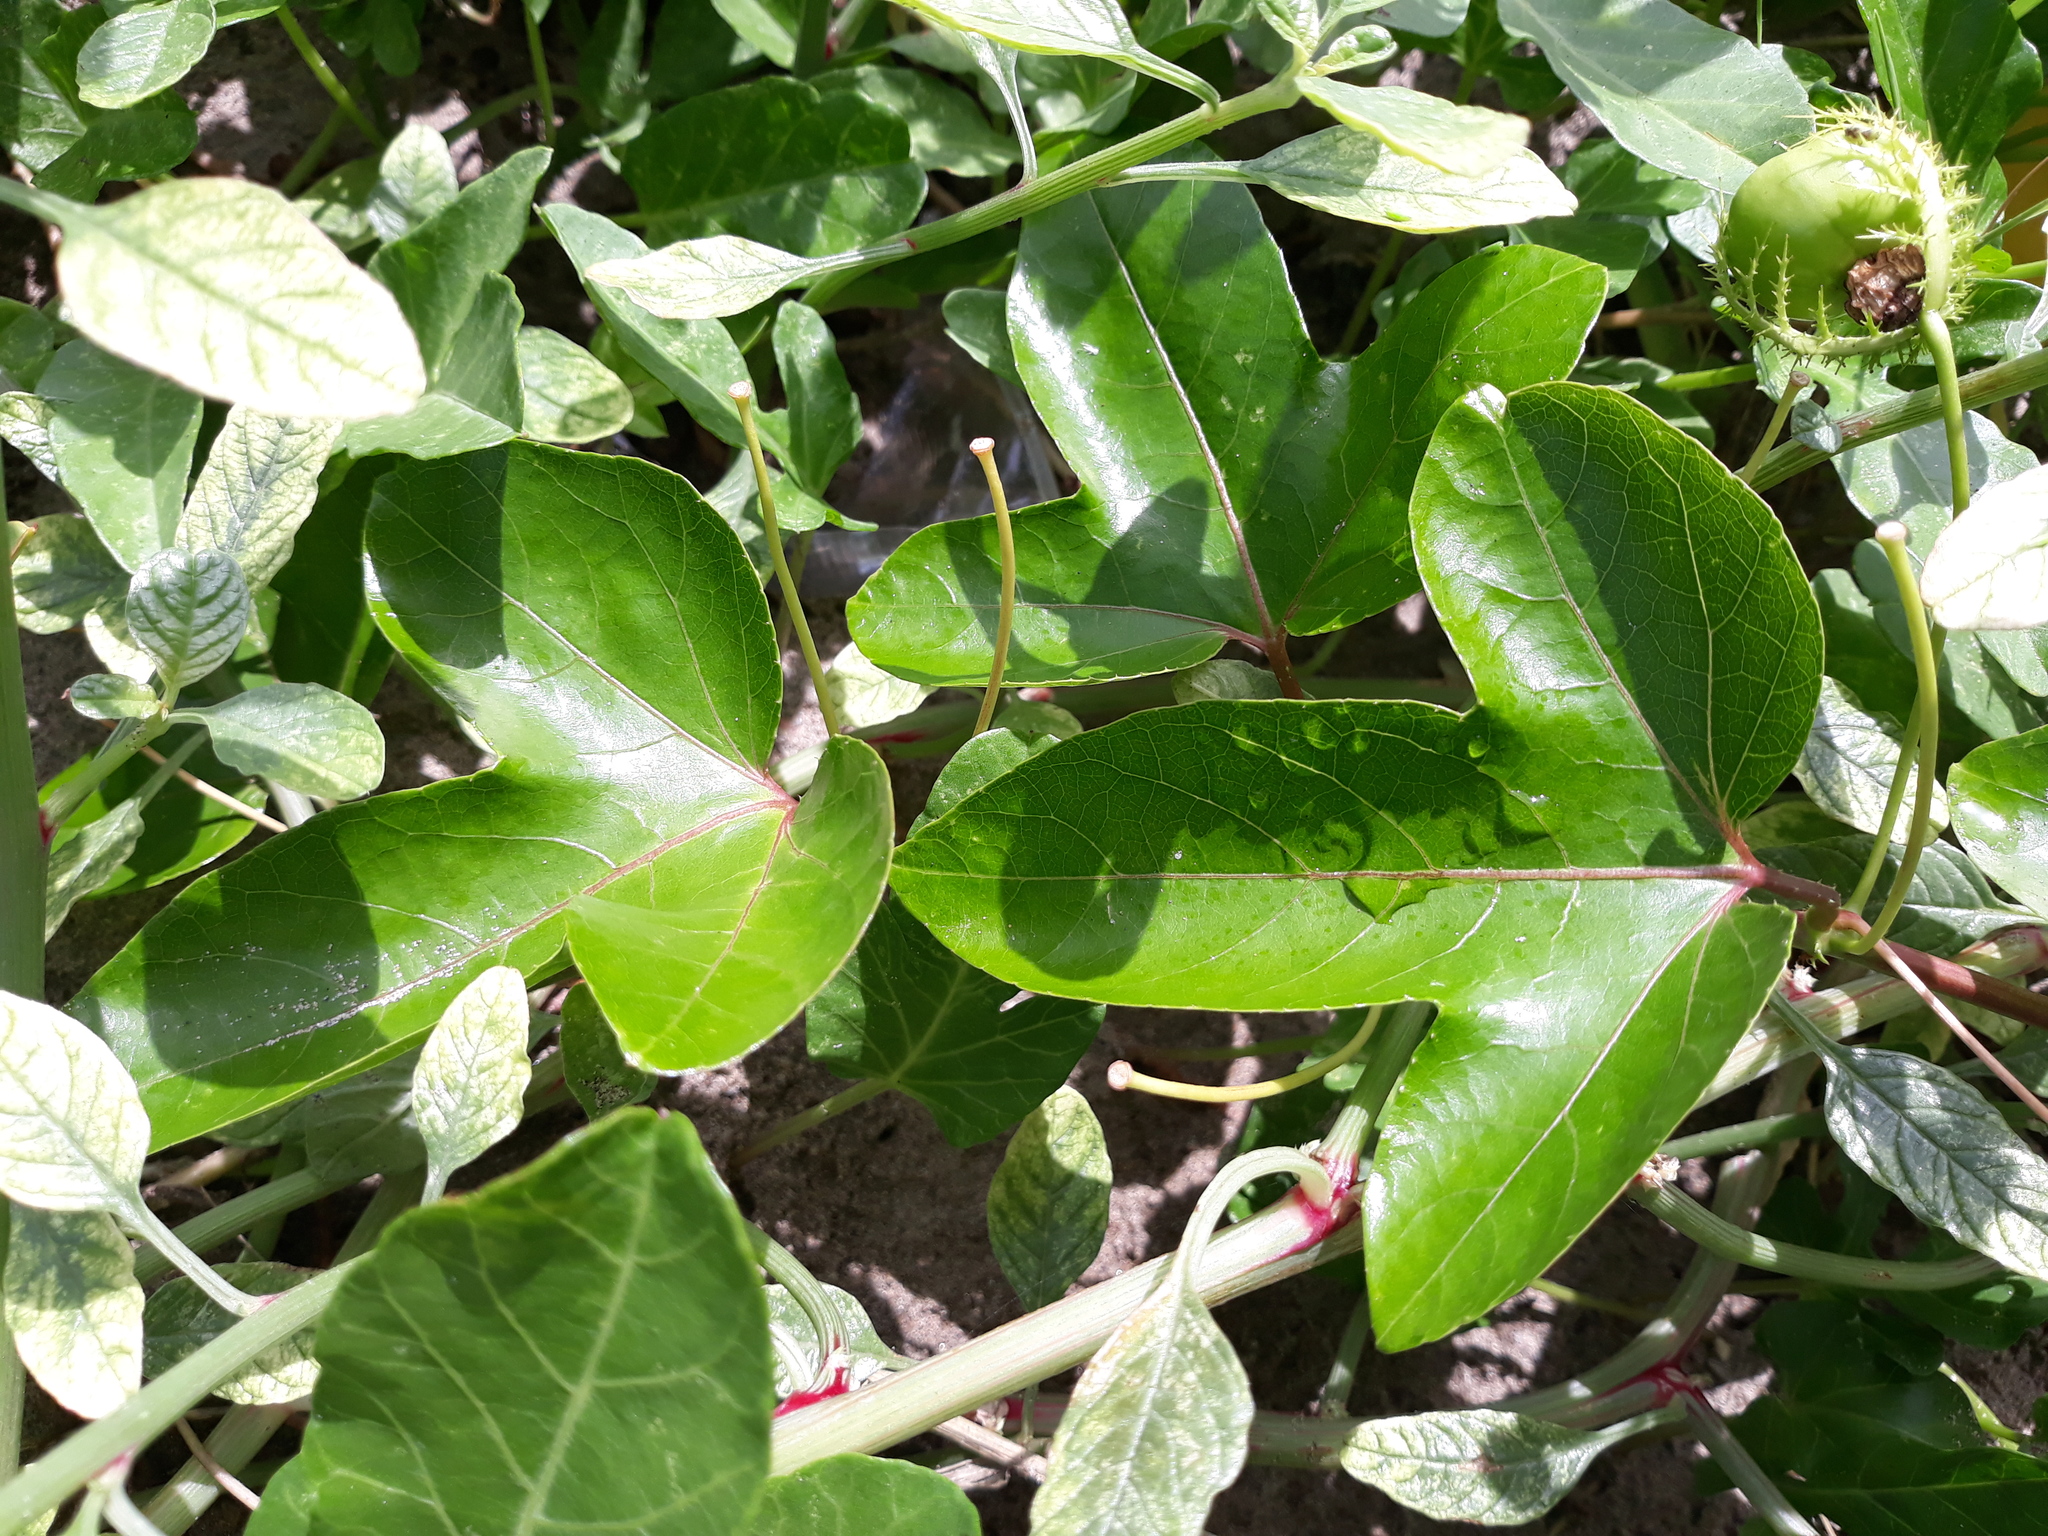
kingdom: Plantae
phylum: Tracheophyta
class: Magnoliopsida
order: Malpighiales
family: Passifloraceae
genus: Passiflora
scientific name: Passiflora ciliata
